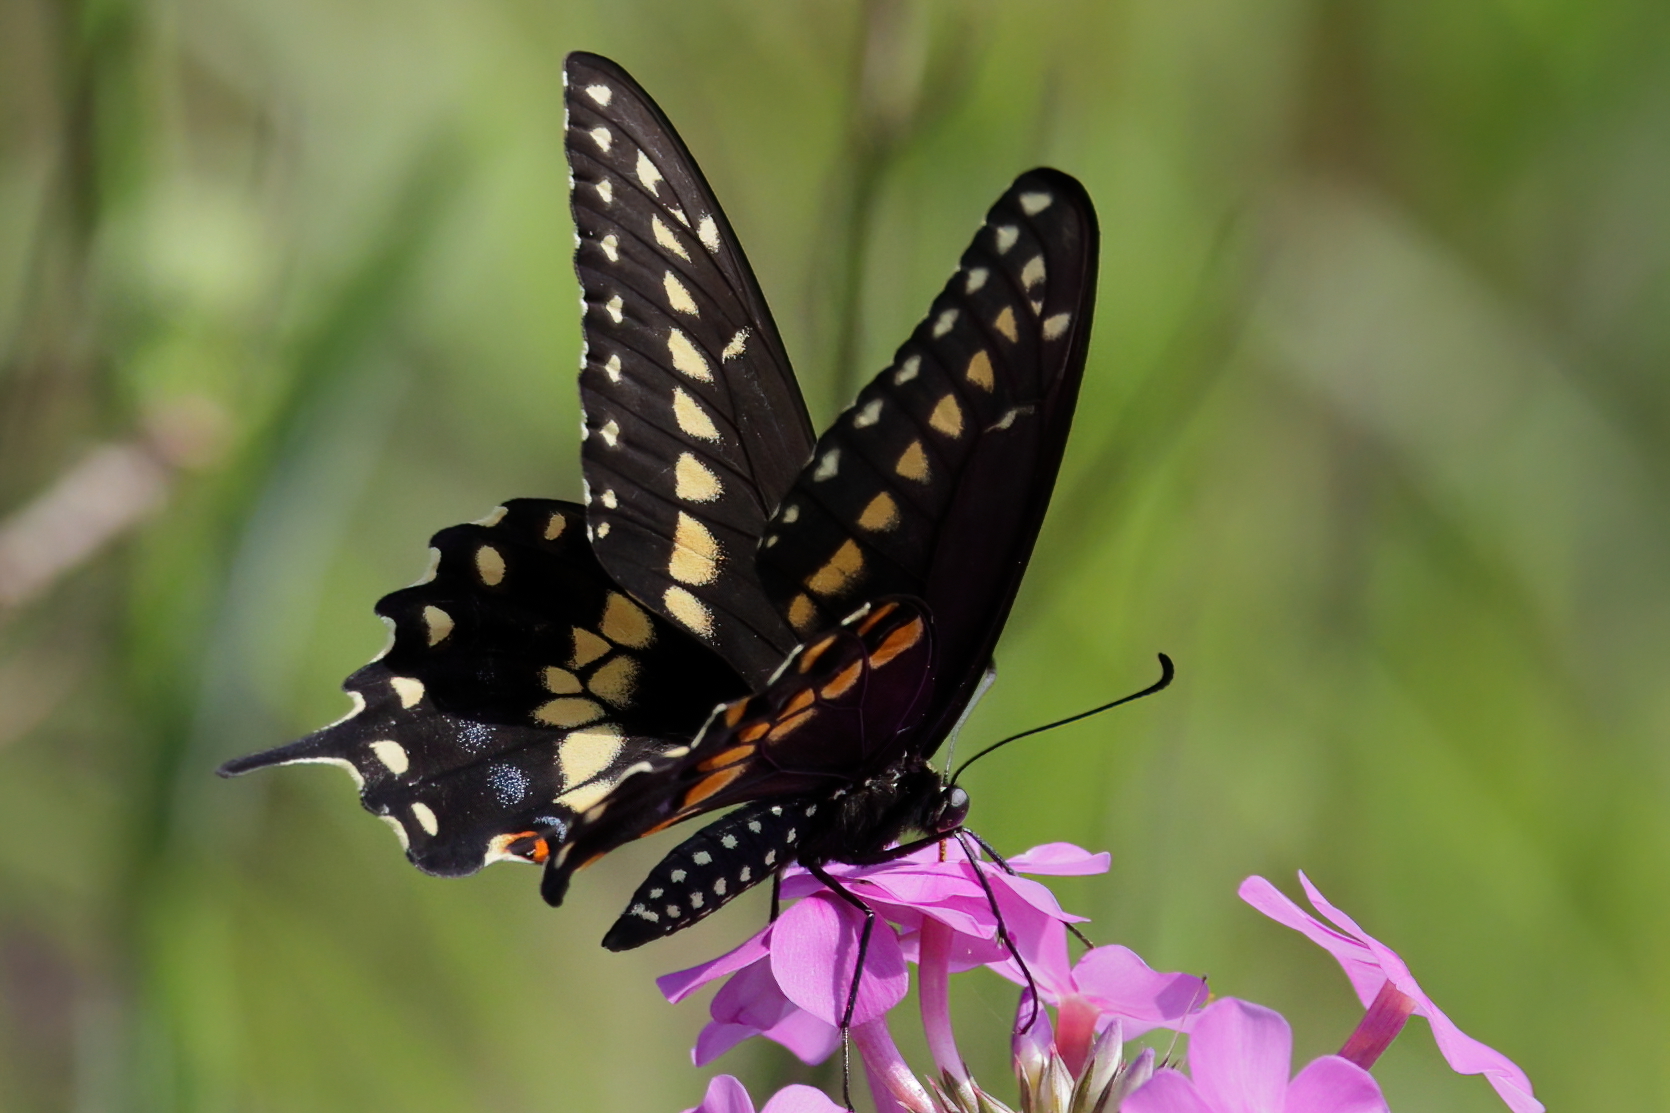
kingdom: Animalia
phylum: Arthropoda
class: Insecta
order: Lepidoptera
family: Papilionidae
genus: Papilio
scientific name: Papilio polyxenes
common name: Black swallowtail
